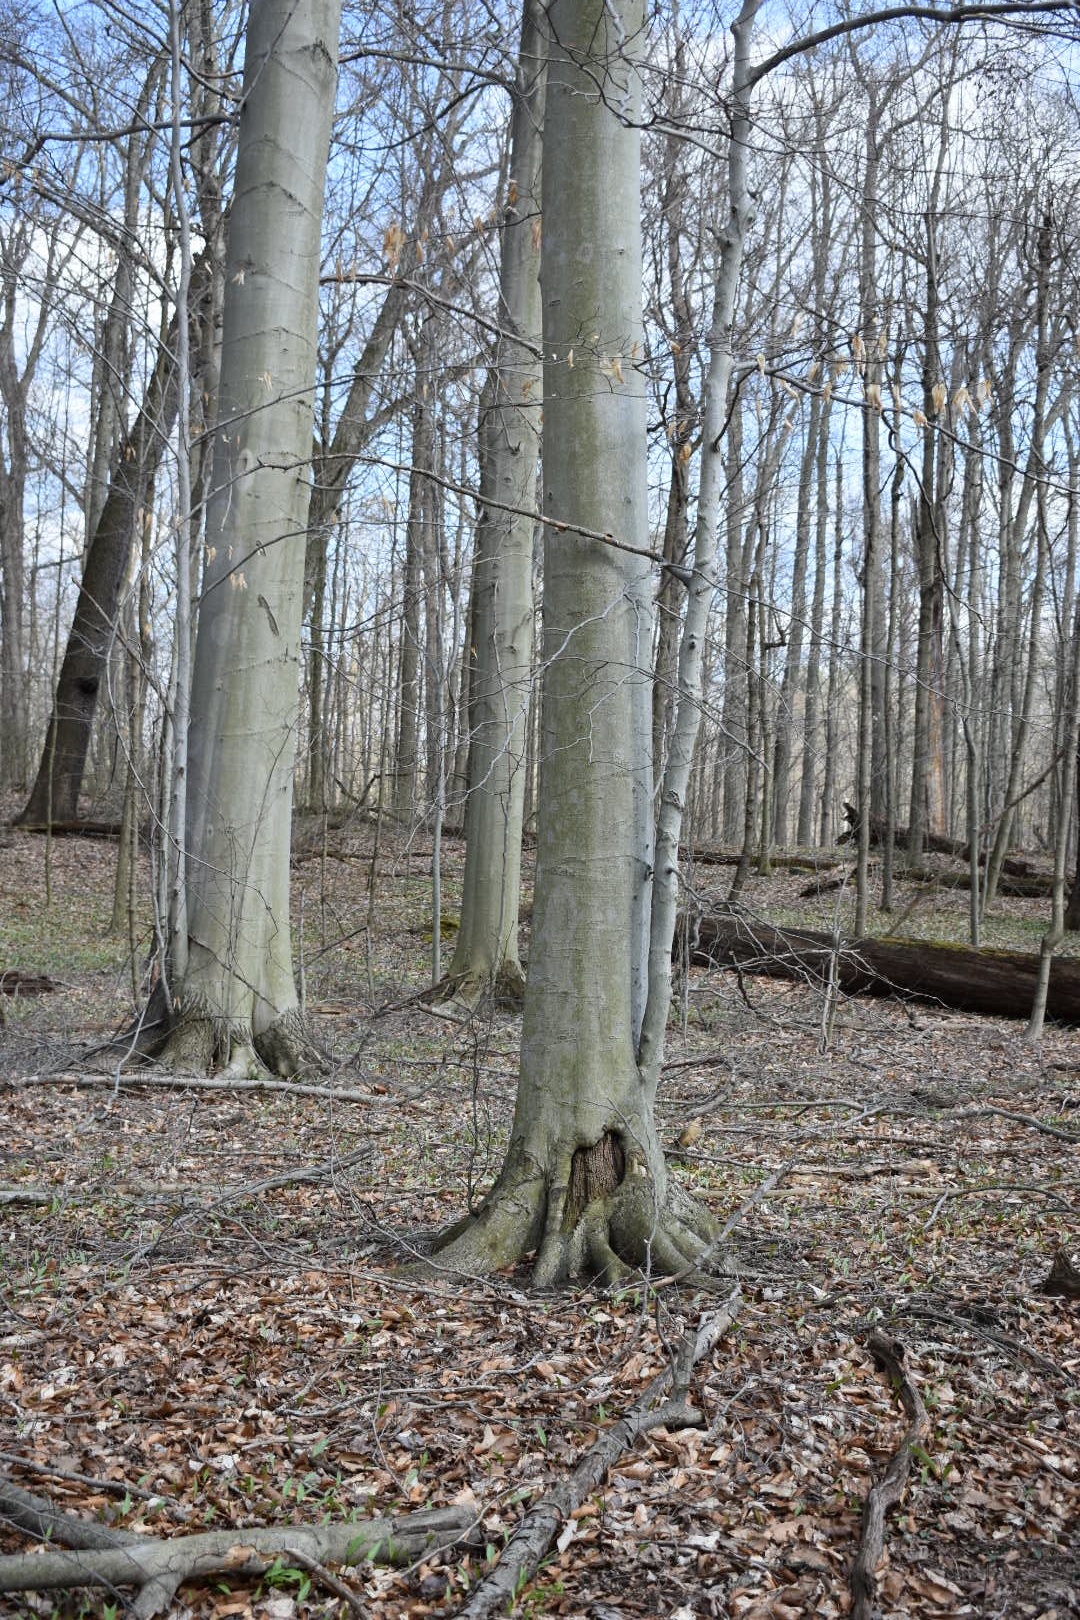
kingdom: Plantae
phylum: Tracheophyta
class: Magnoliopsida
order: Fagales
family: Fagaceae
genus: Fagus
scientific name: Fagus grandifolia
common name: American beech
